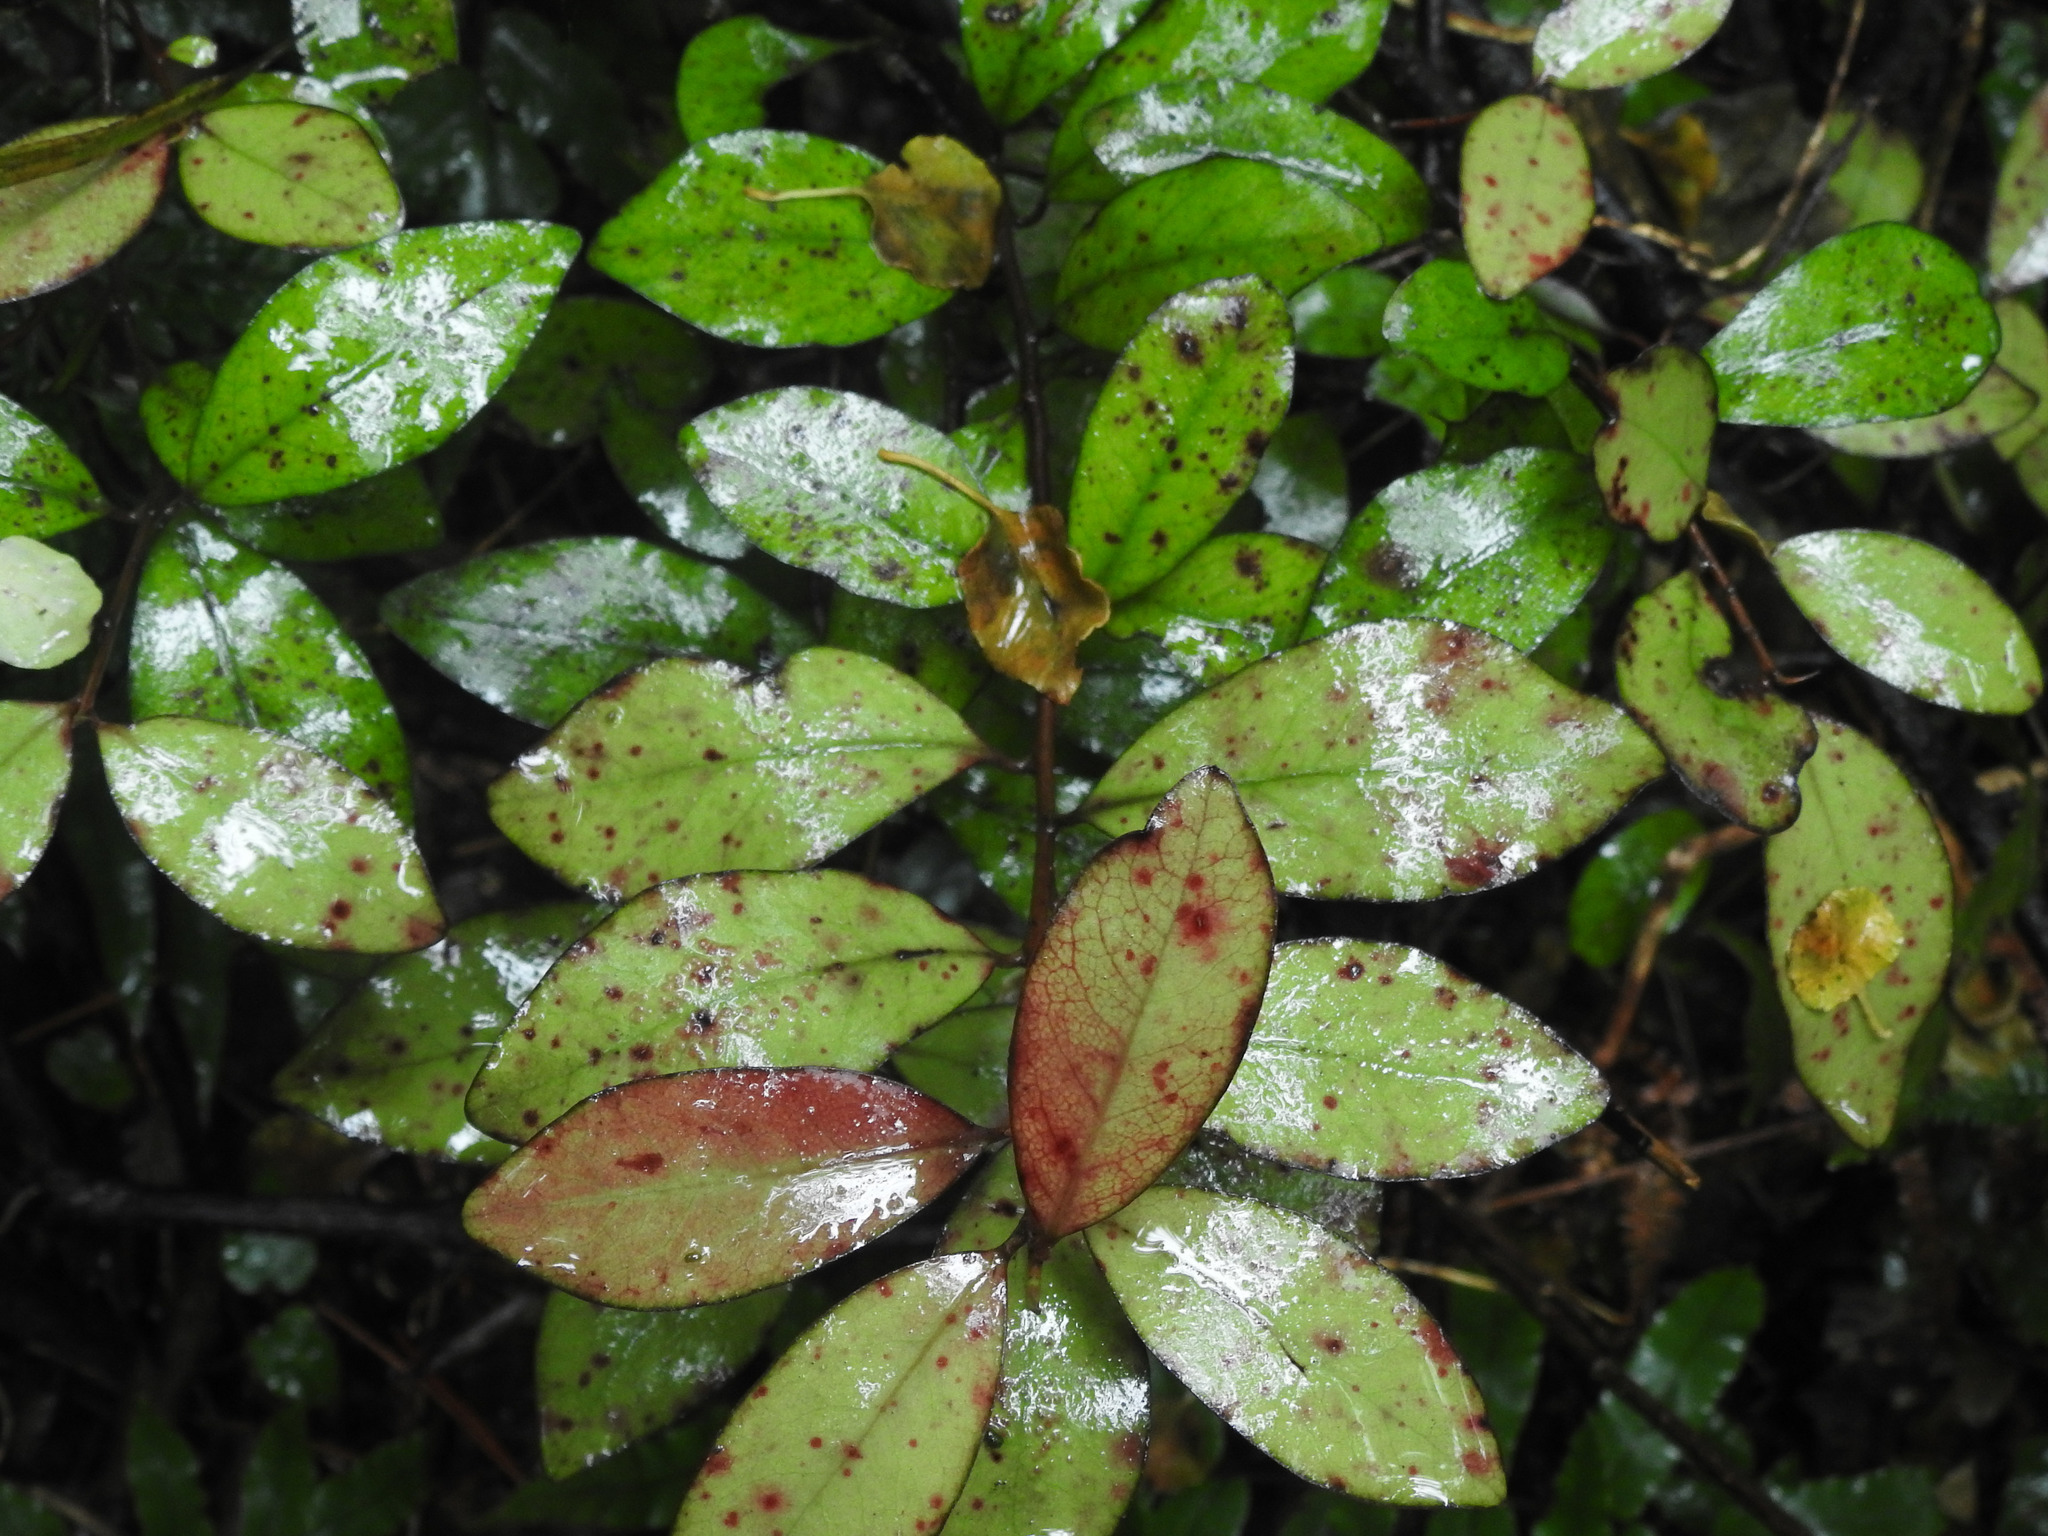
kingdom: Plantae
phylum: Tracheophyta
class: Magnoliopsida
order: Canellales
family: Winteraceae
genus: Pseudowintera
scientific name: Pseudowintera colorata
